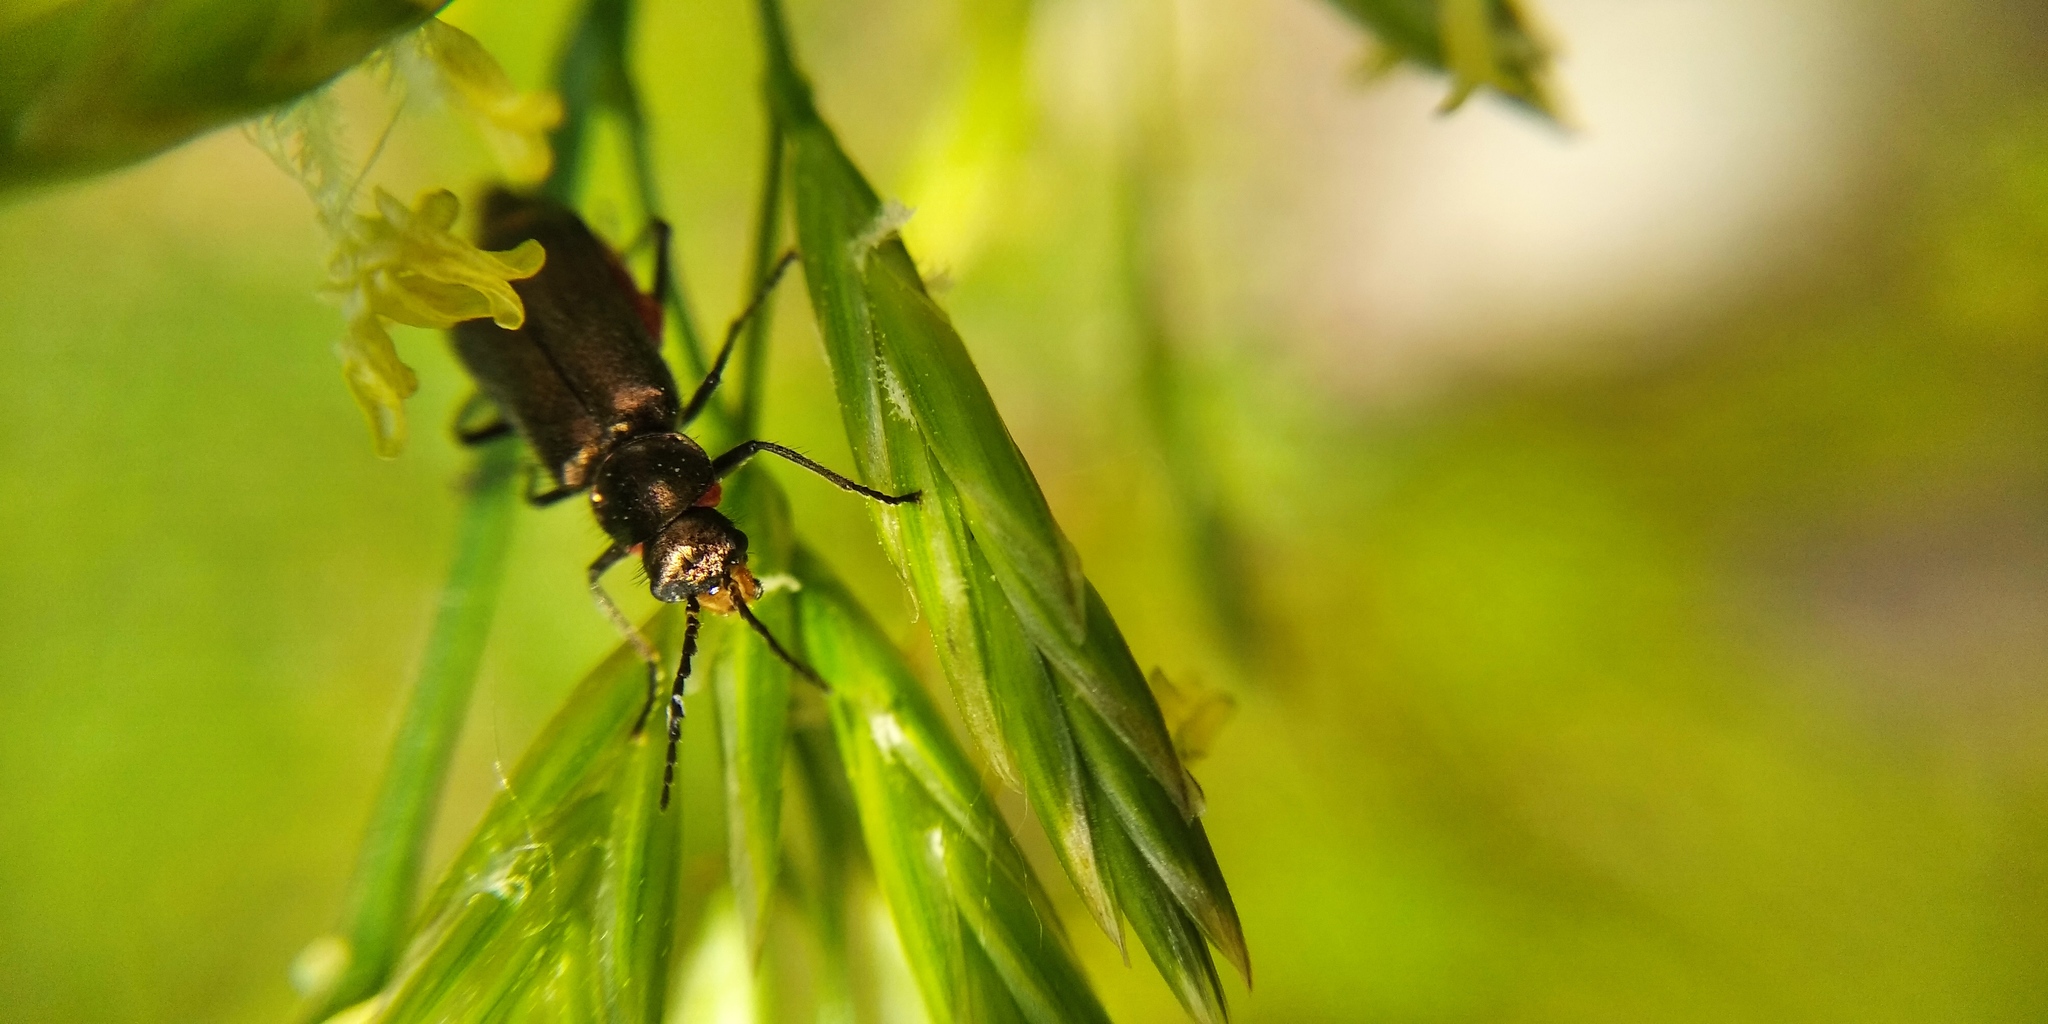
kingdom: Animalia
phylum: Arthropoda
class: Insecta
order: Coleoptera
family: Melyridae
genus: Malachius
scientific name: Malachius bipustulatus
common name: Malachite beetle
